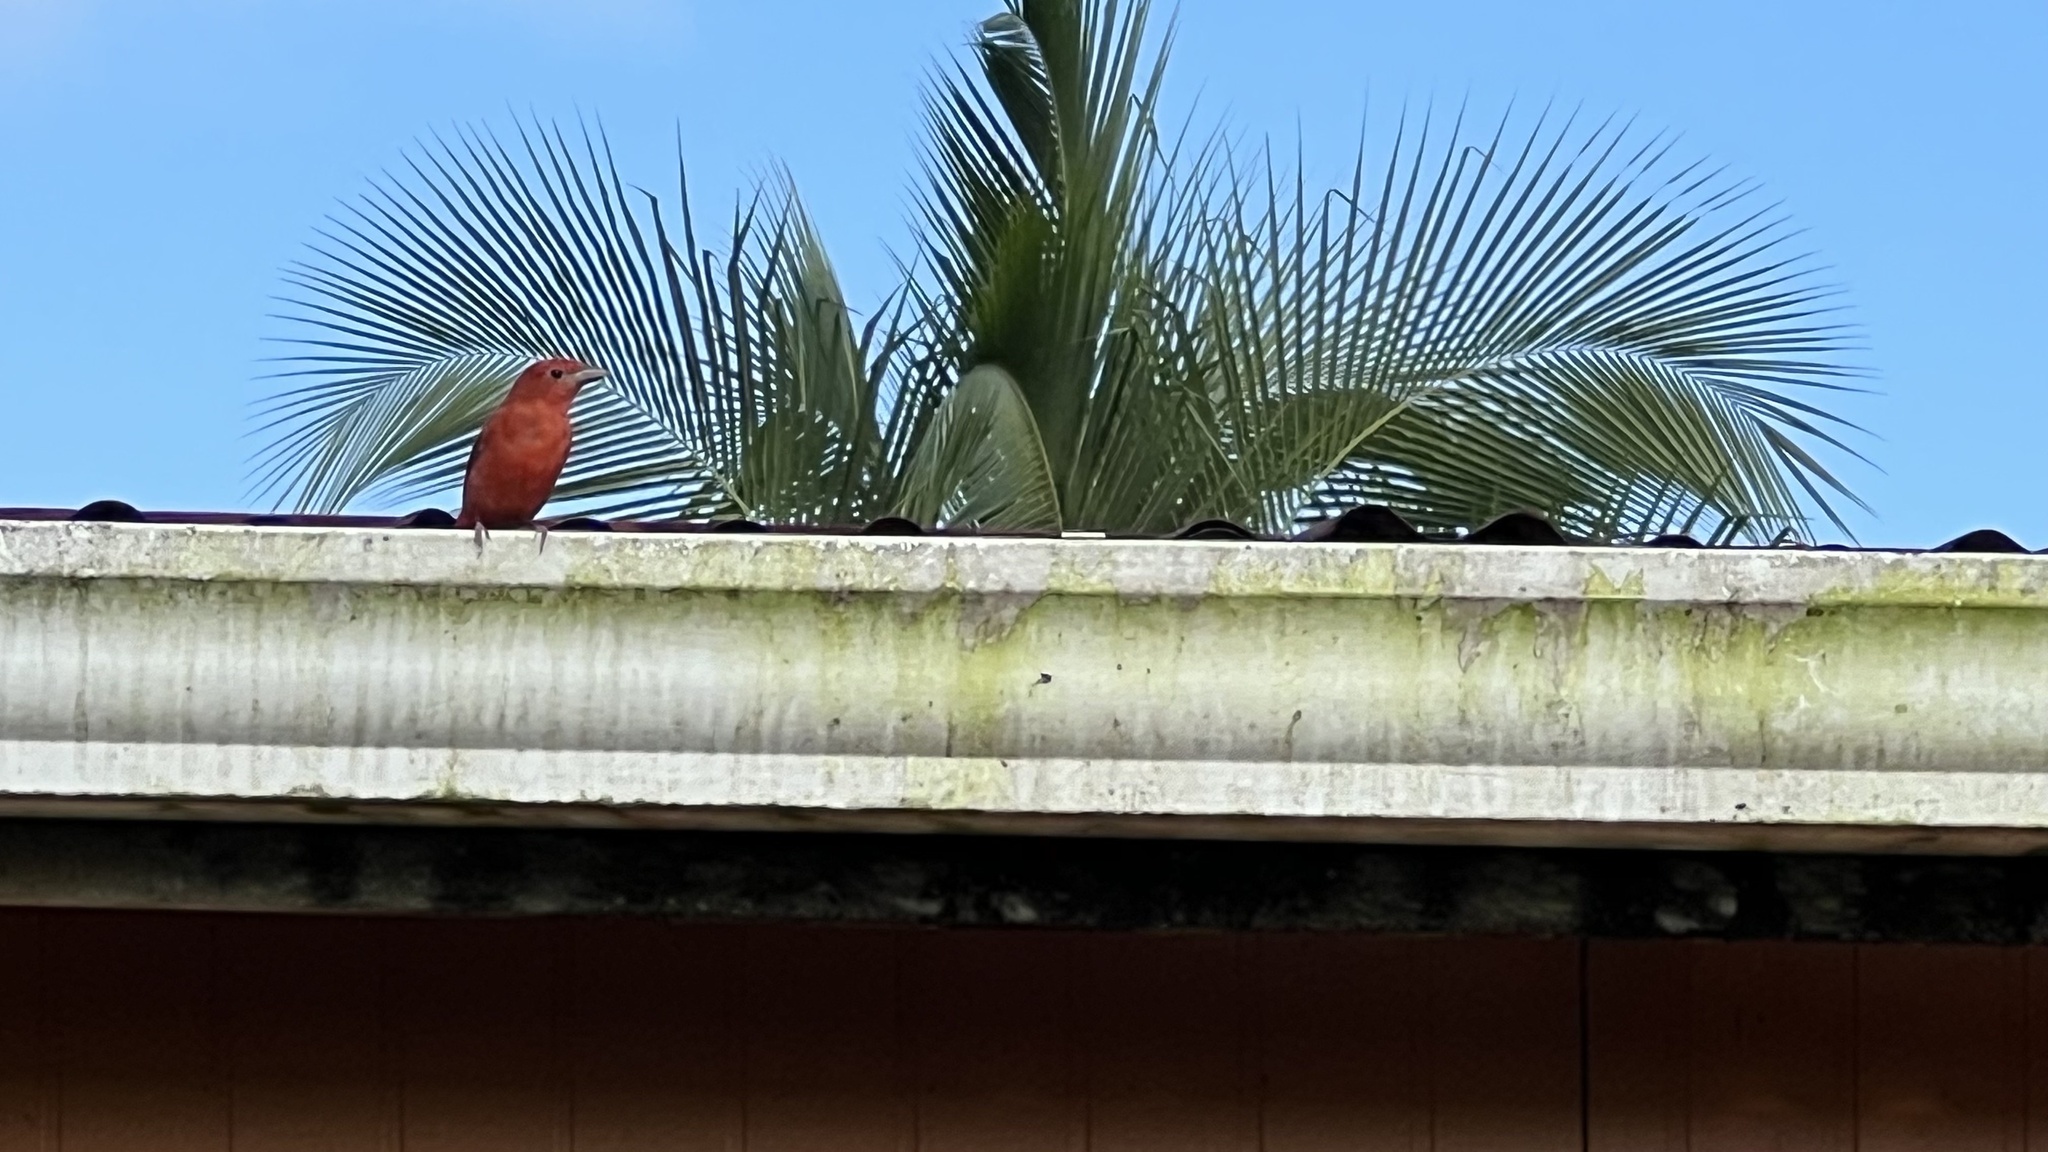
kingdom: Animalia
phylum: Chordata
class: Aves
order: Passeriformes
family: Cardinalidae
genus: Piranga
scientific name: Piranga rubra
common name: Summer tanager
